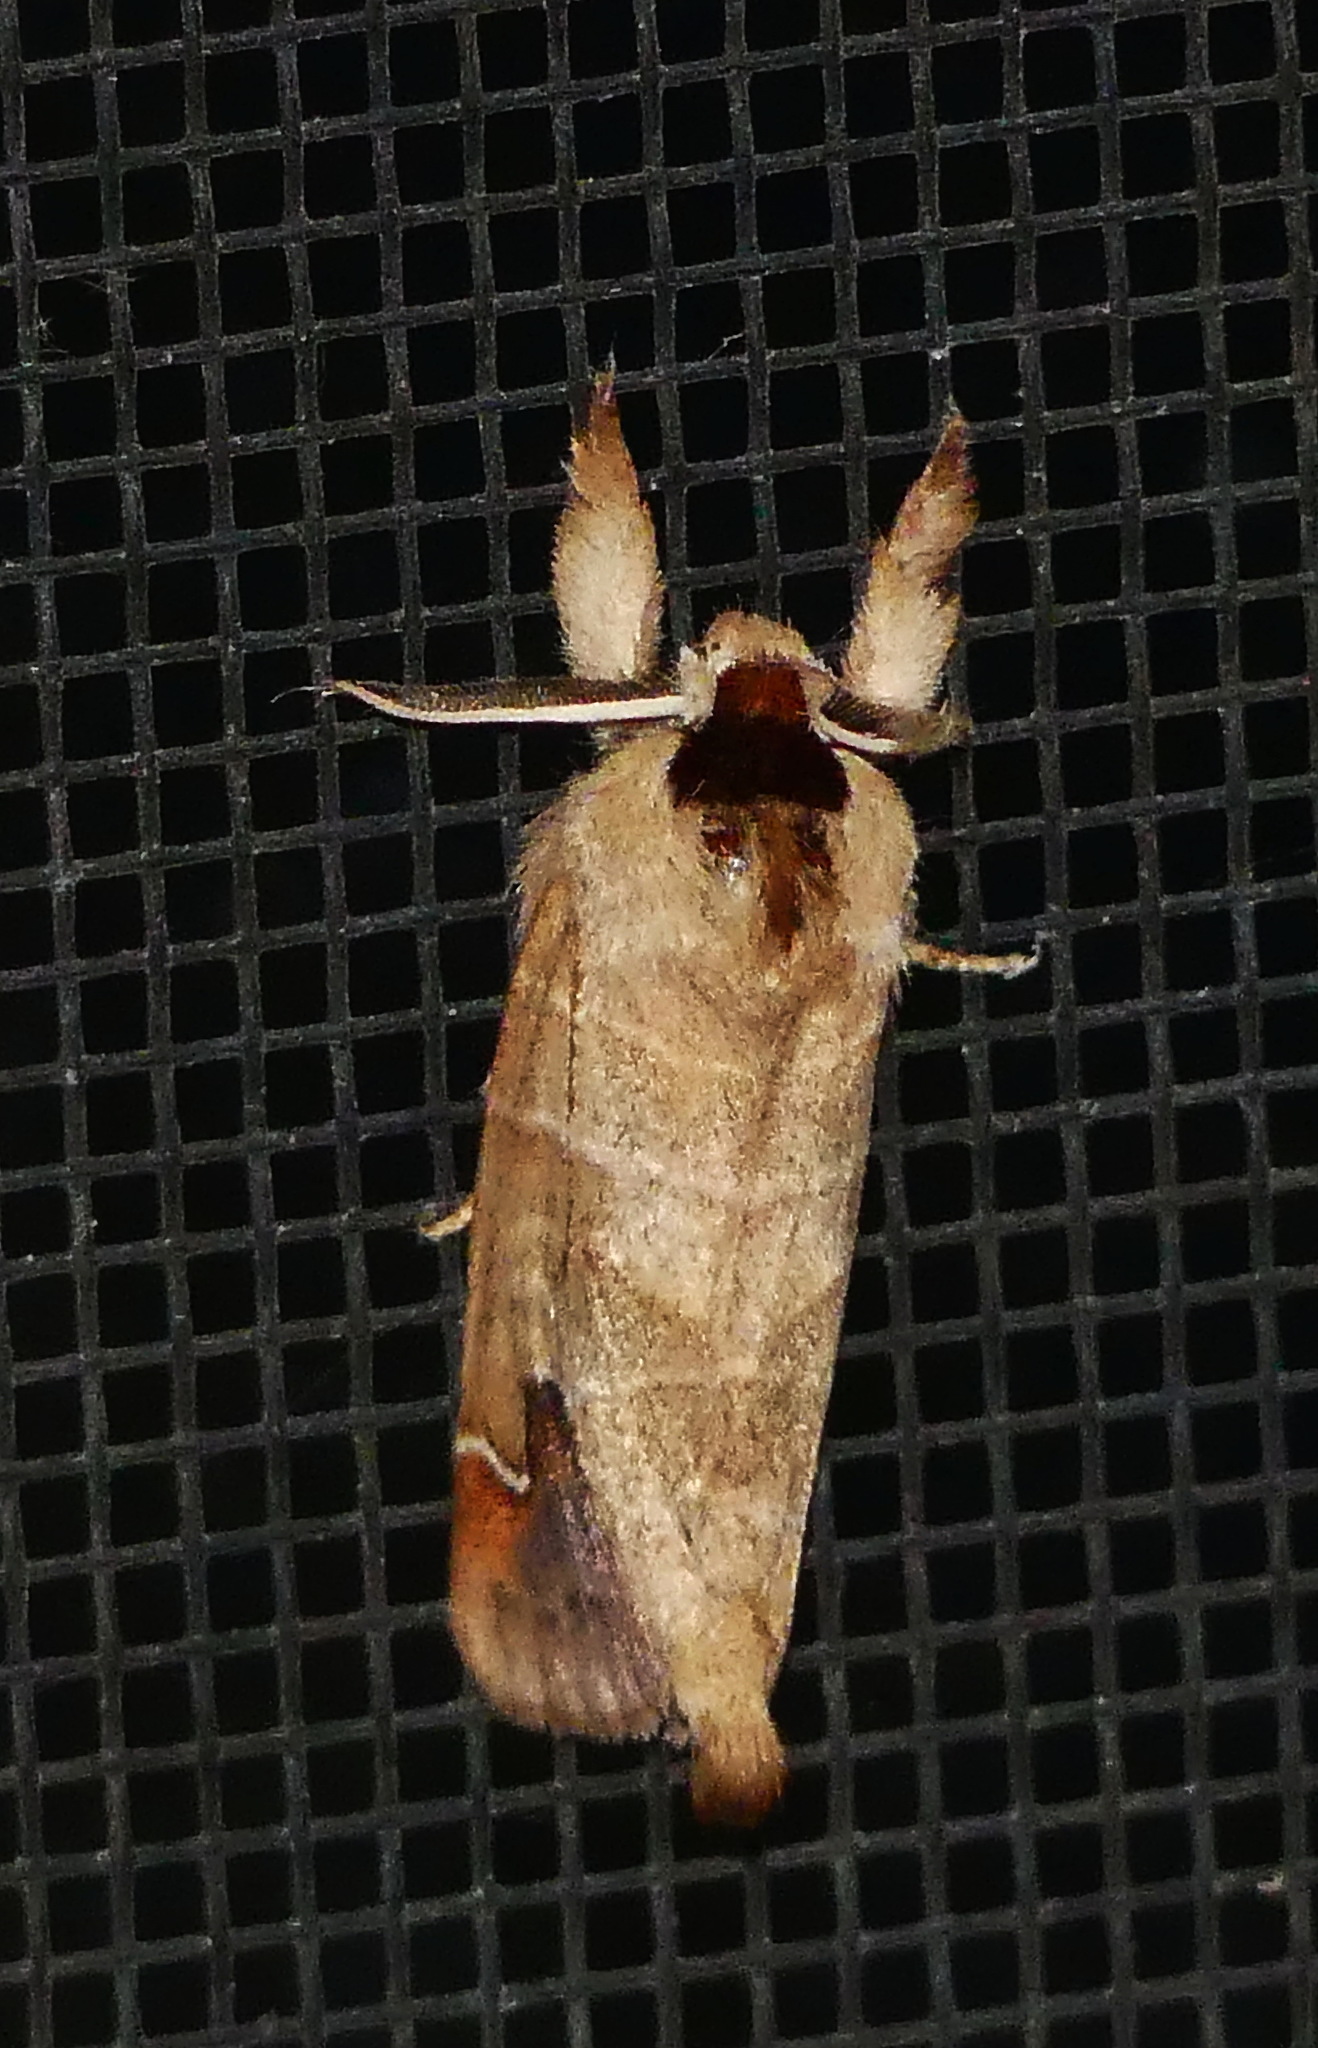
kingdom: Animalia
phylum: Arthropoda
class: Insecta
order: Lepidoptera
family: Notodontidae
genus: Clostera
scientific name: Clostera albosigma
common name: Sigmoid prominent
